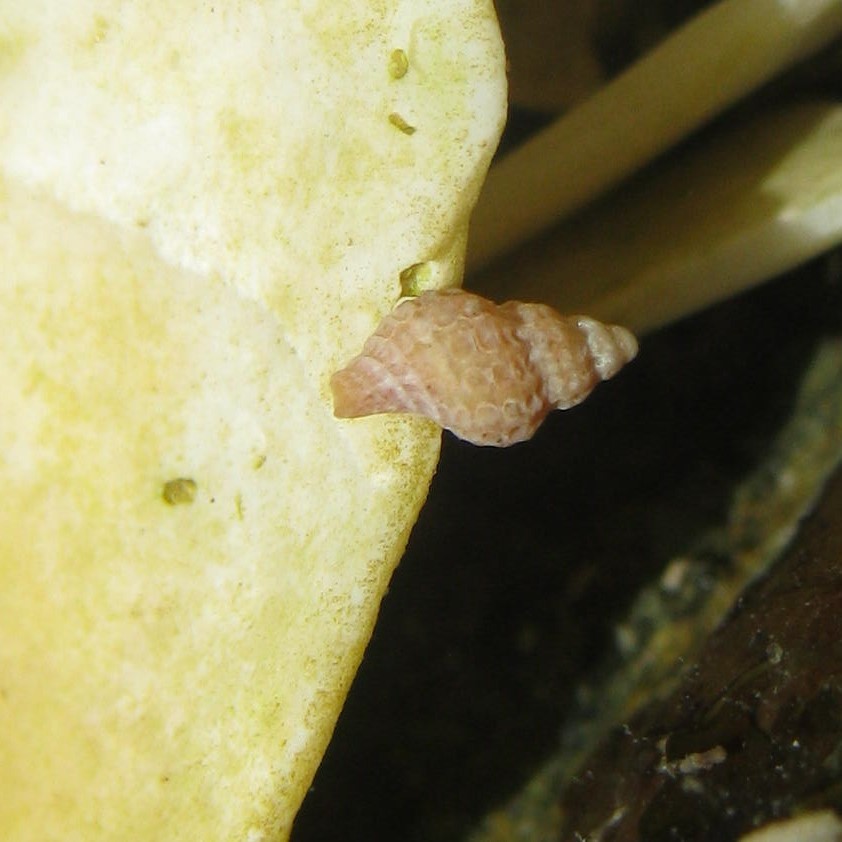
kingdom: Animalia
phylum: Mollusca
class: Gastropoda
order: Neogastropoda
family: Muricidae
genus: Xymenella
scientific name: Xymenella pusilla
